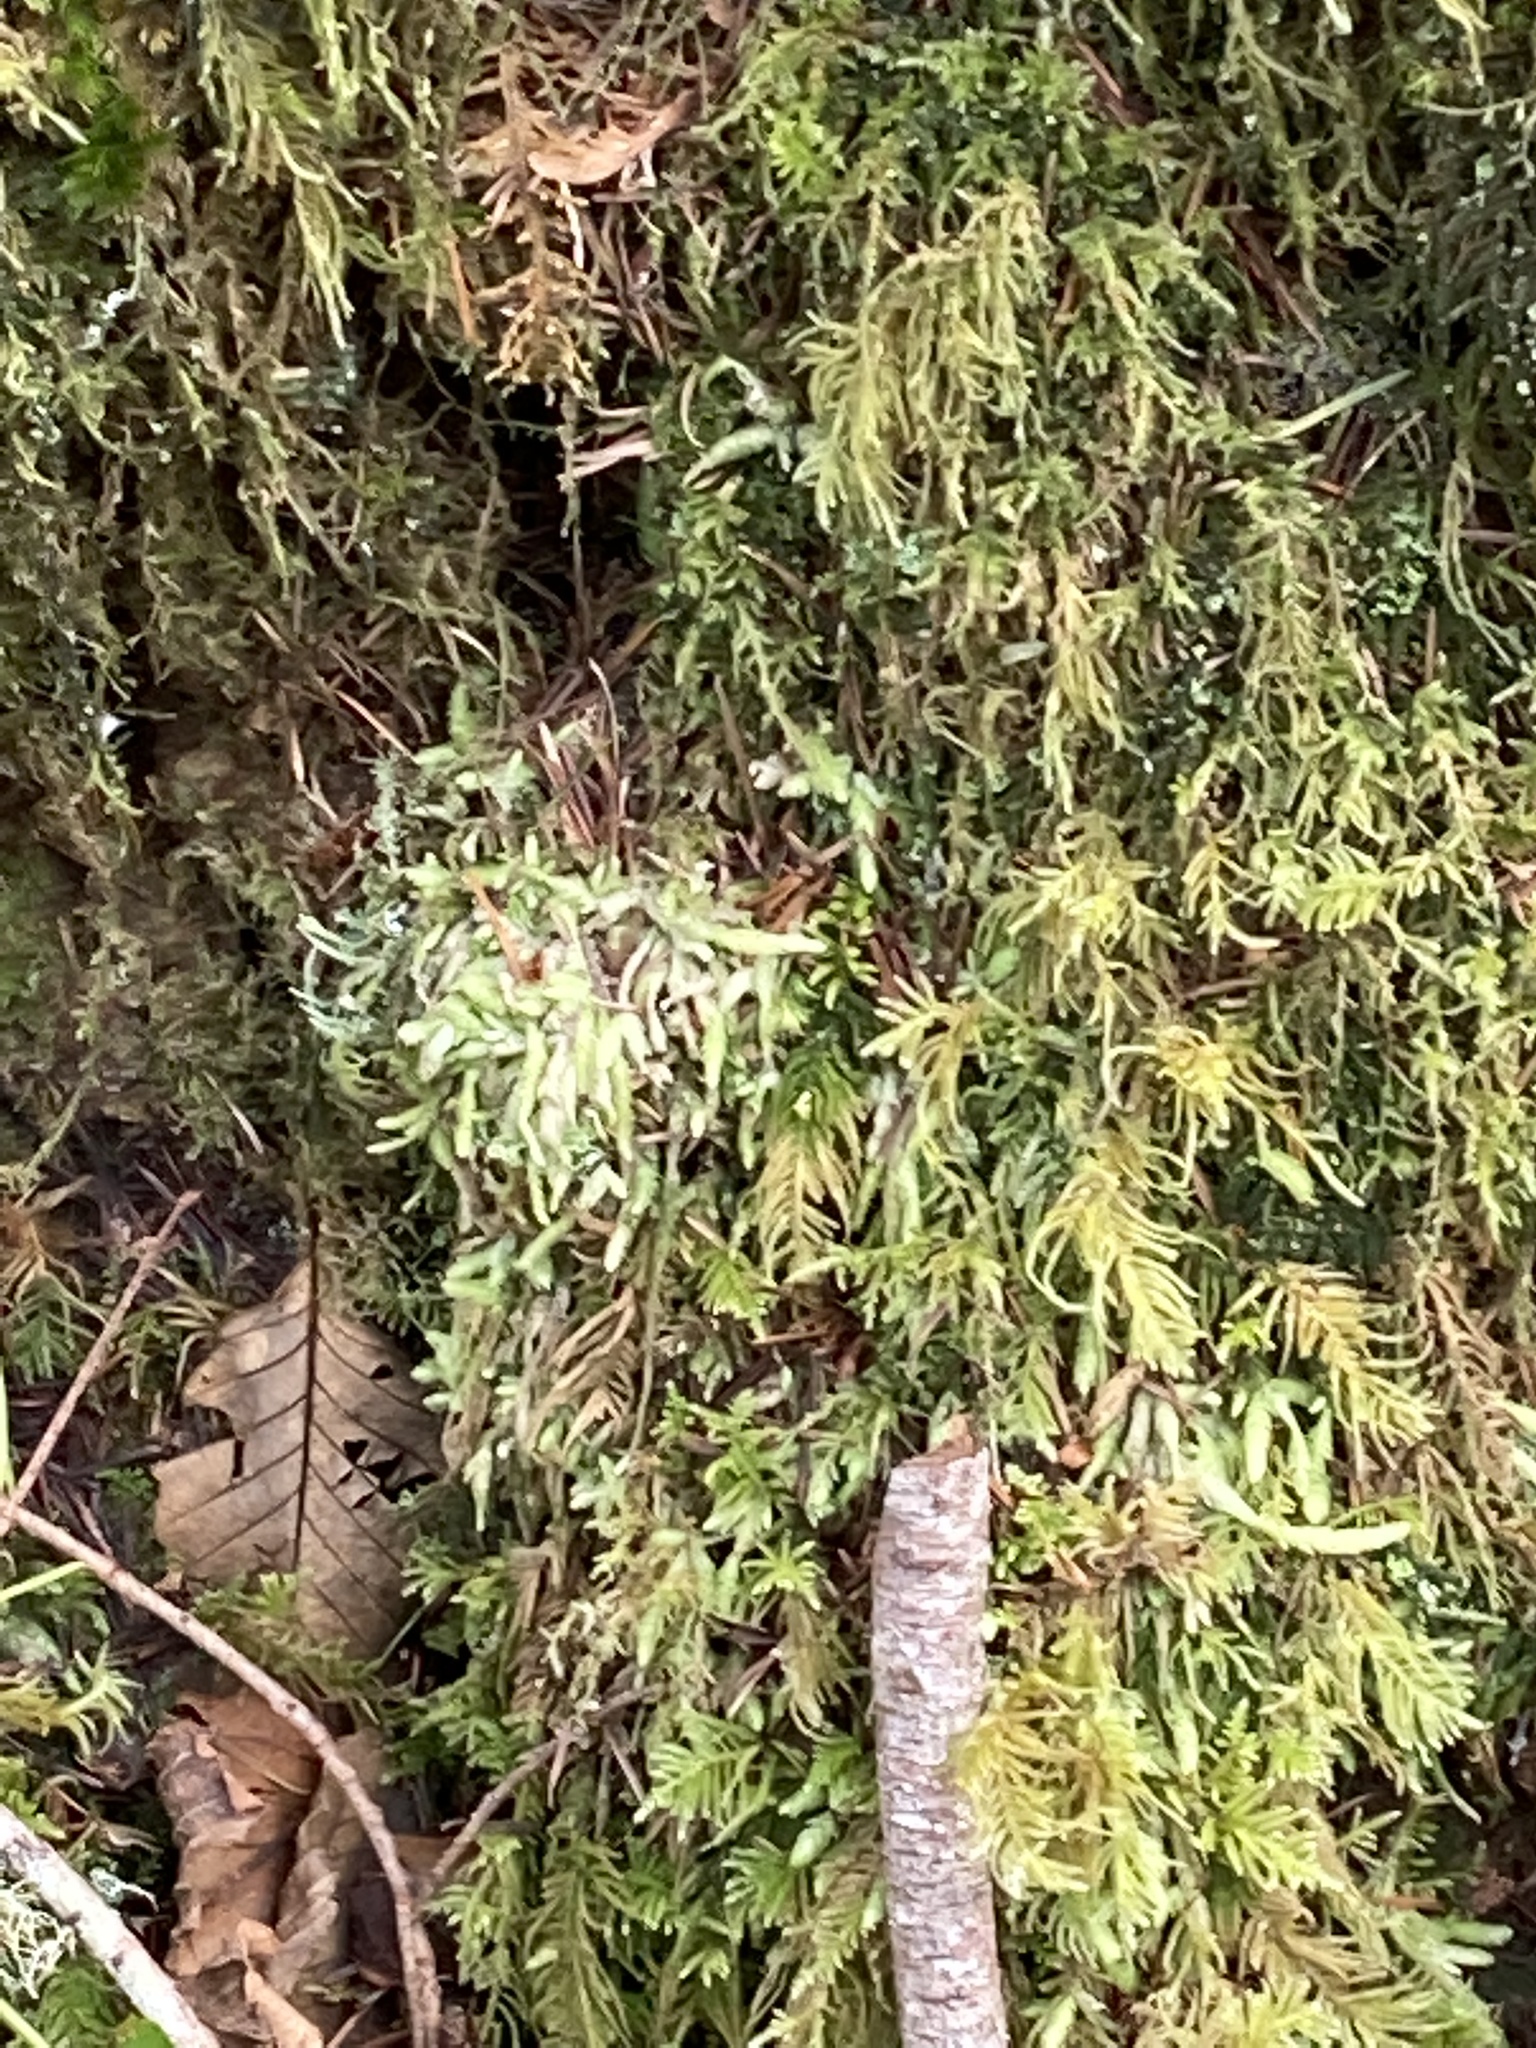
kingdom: Plantae
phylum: Bryophyta
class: Bryopsida
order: Hypnales
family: Plagiotheciaceae
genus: Plagiothecium
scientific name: Plagiothecium undulatum
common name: Waved silk-moss
